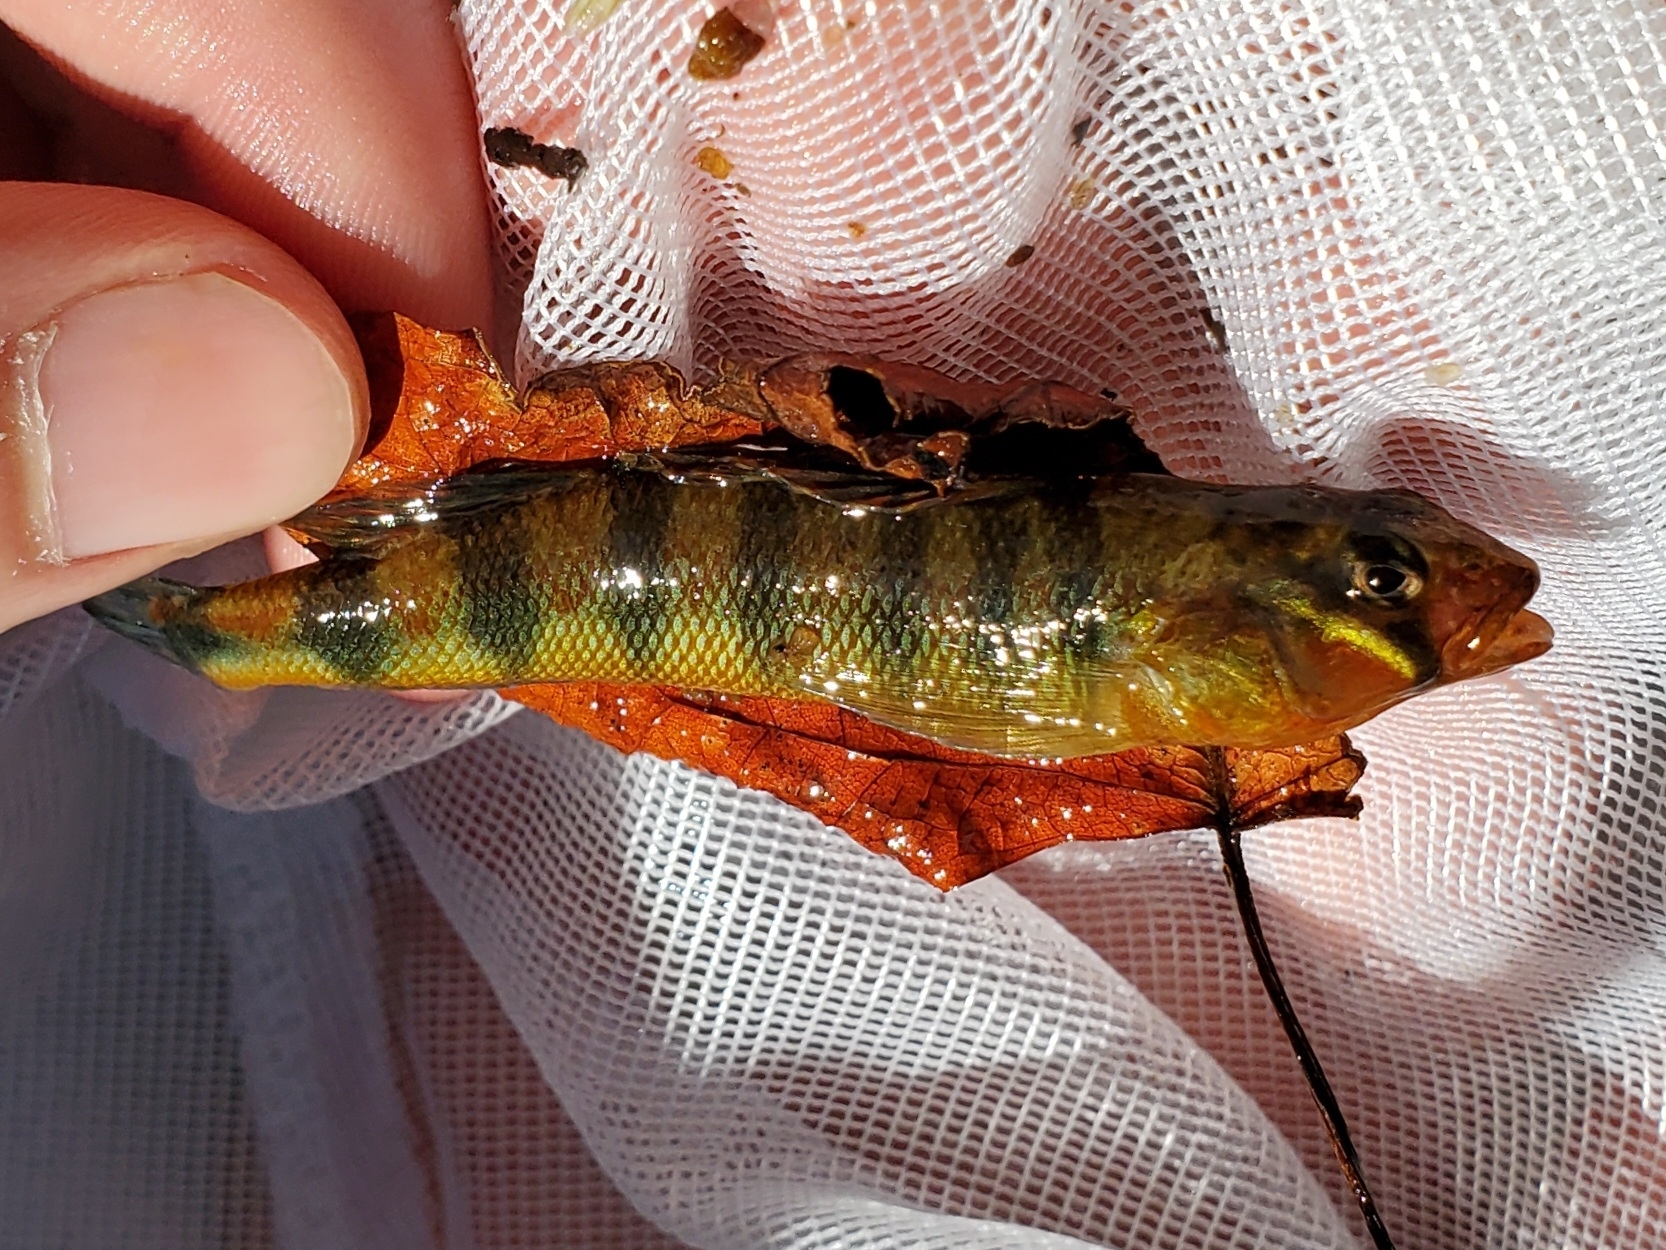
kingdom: Animalia
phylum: Chordata
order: Perciformes
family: Percidae
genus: Percina
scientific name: Percina evides
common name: Gilt darter
